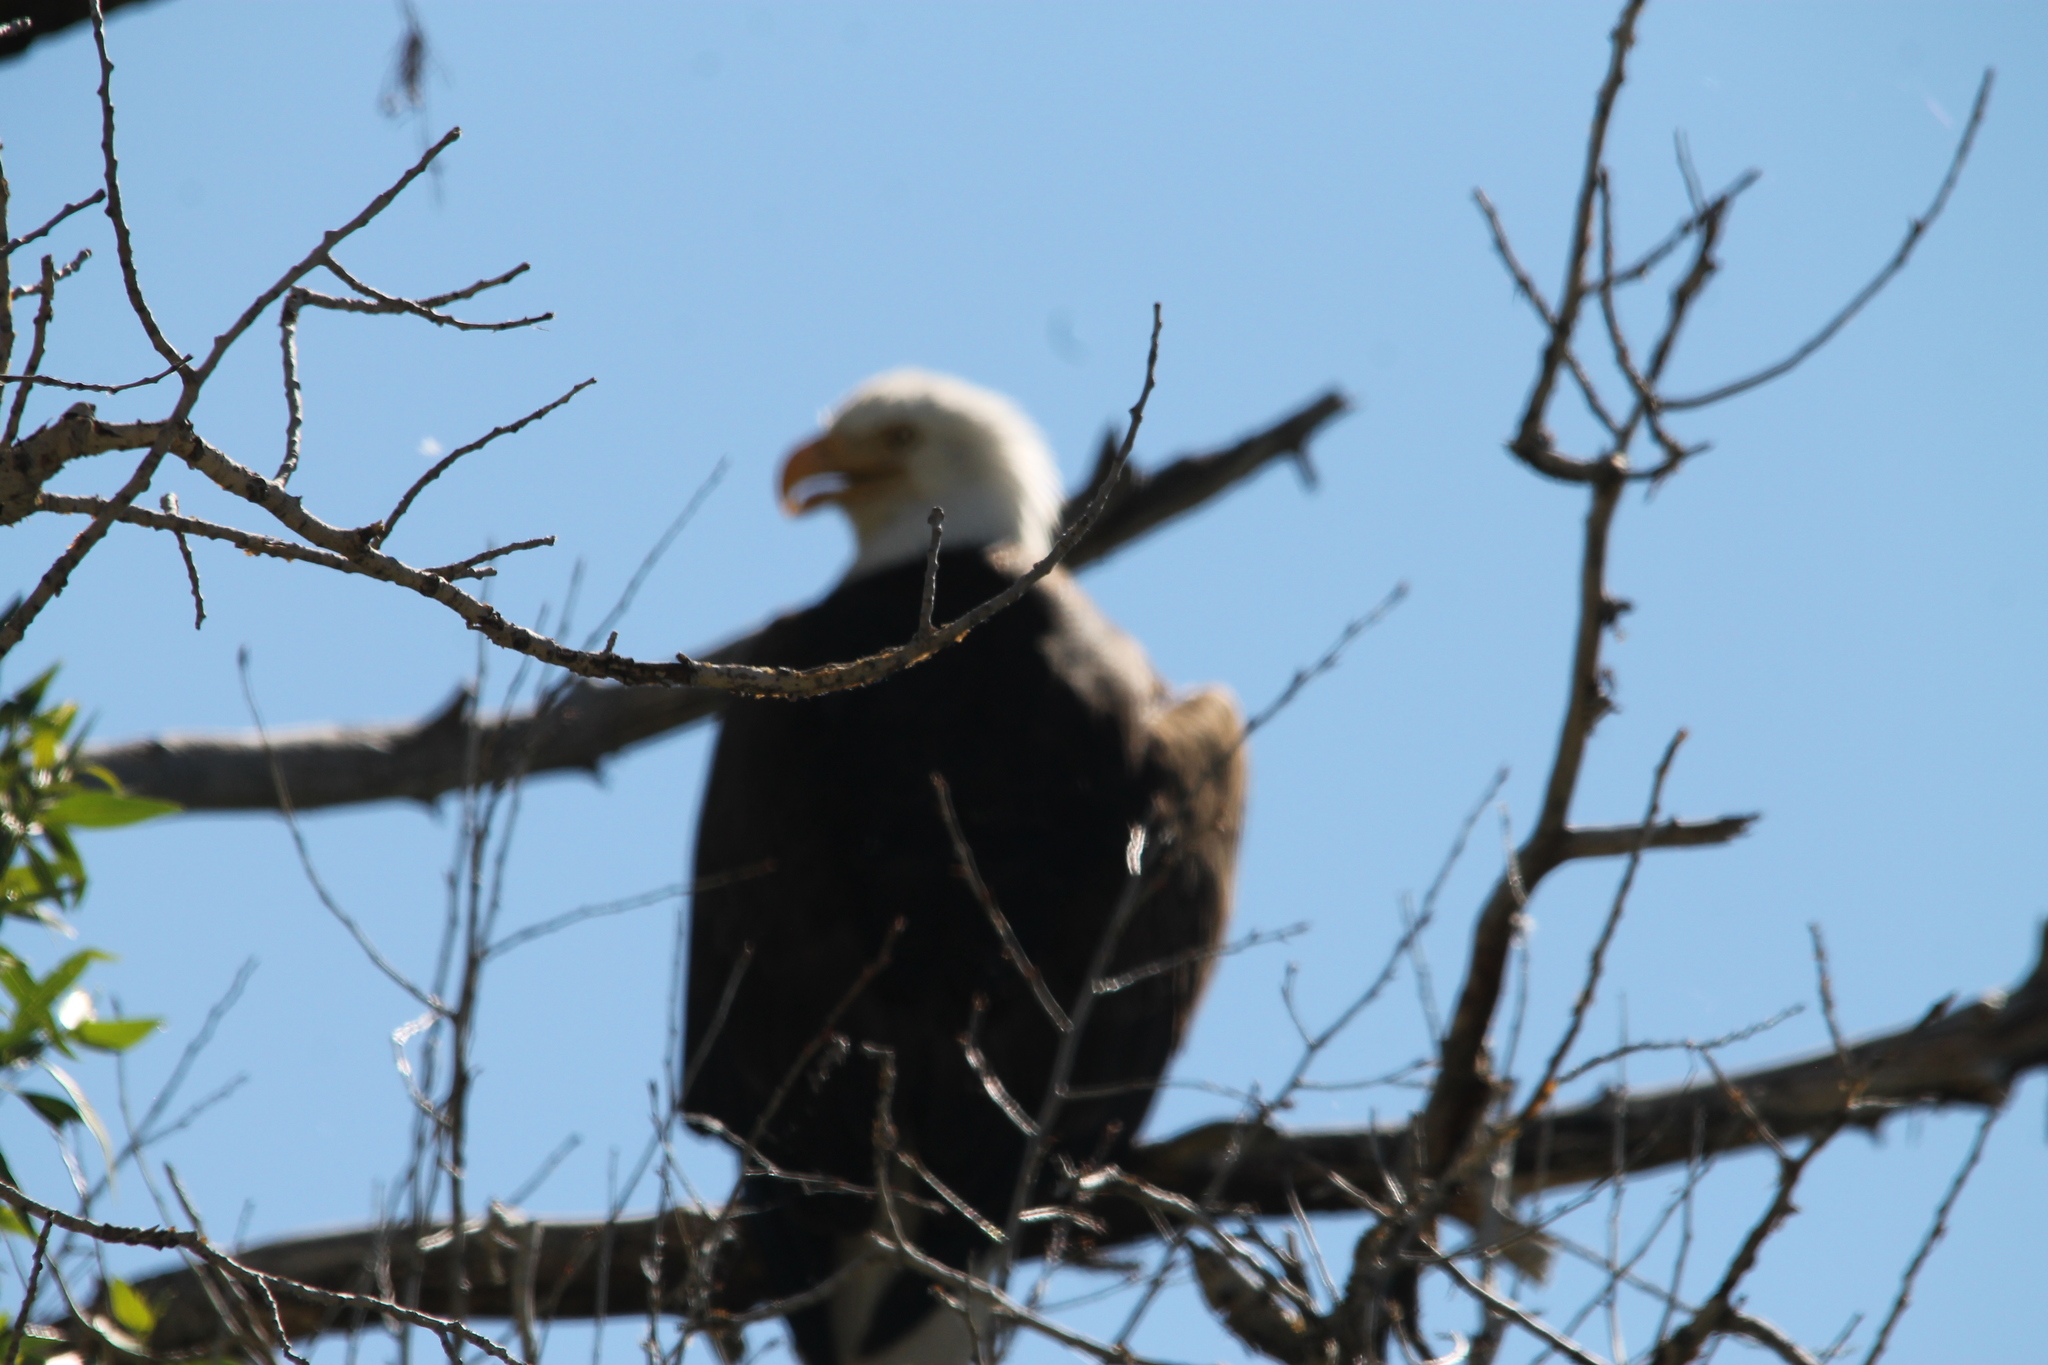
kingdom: Animalia
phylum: Chordata
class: Aves
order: Accipitriformes
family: Accipitridae
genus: Haliaeetus
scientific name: Haliaeetus leucocephalus
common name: Bald eagle
